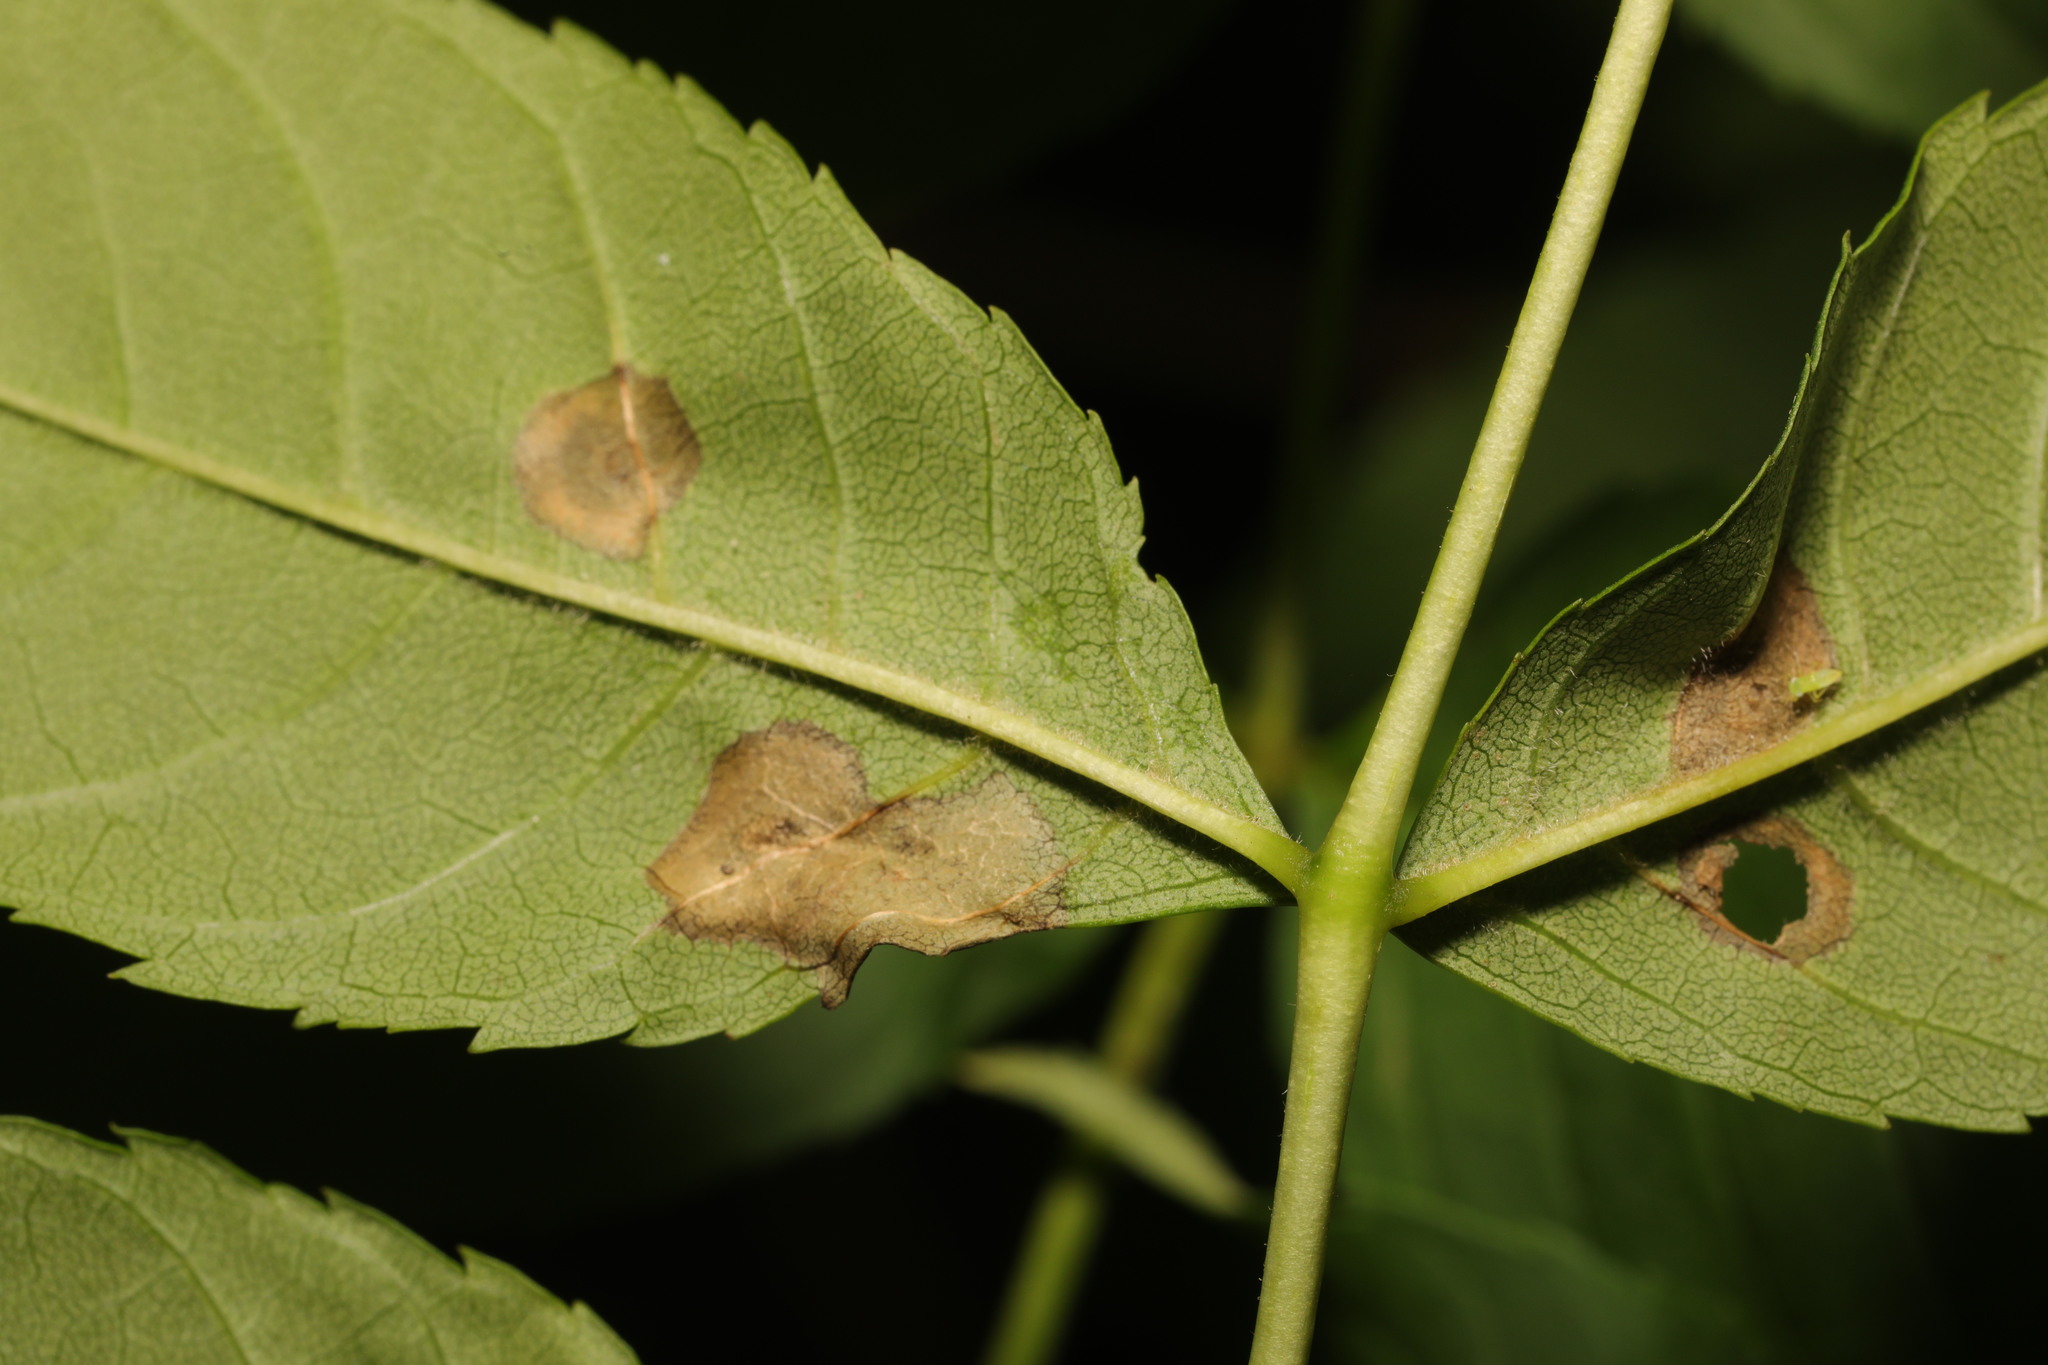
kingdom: Animalia
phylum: Arthropoda
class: Insecta
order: Diptera
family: Cecidomyiidae
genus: Dasineura
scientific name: Dasineura fraxinea
